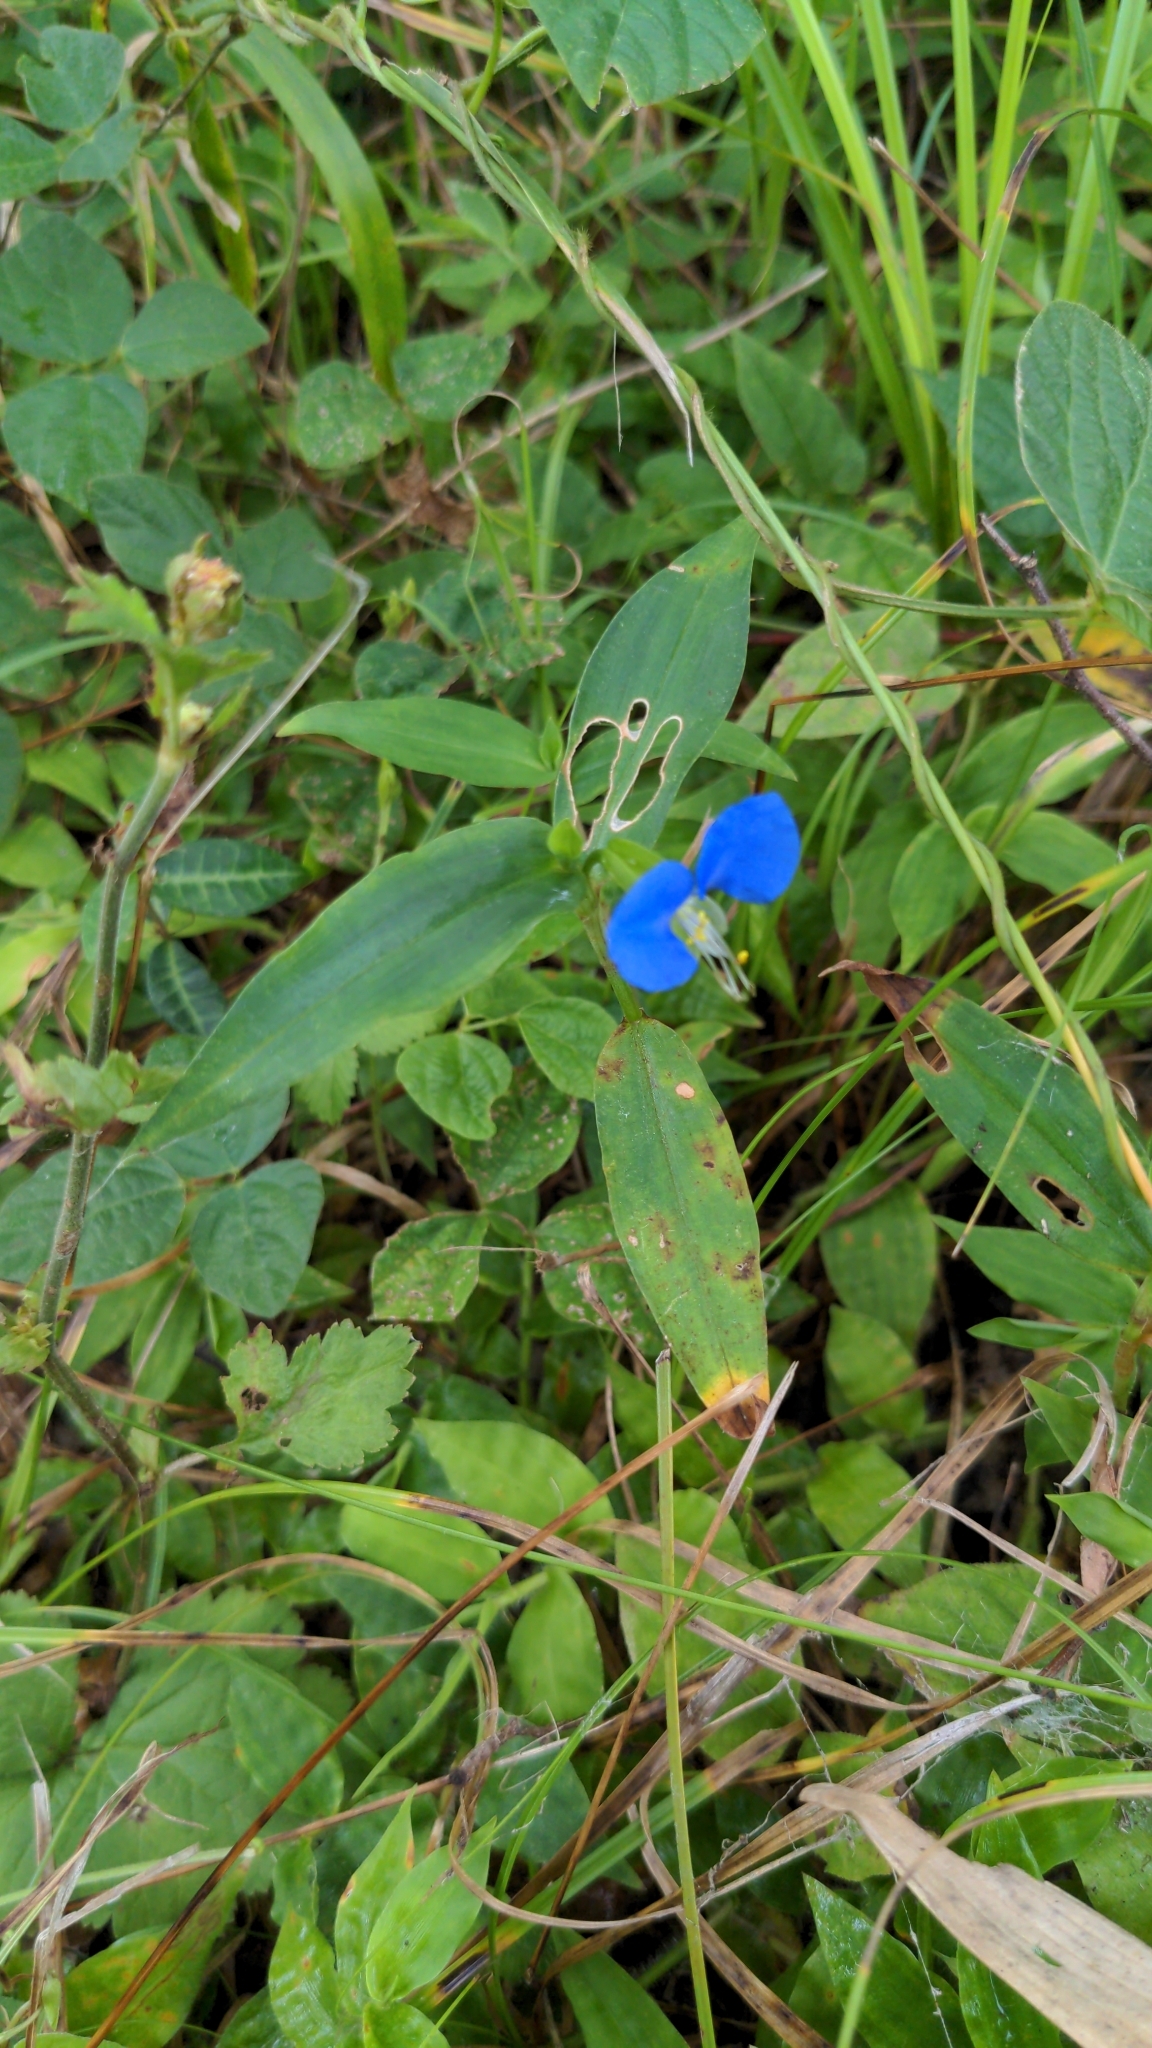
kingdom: Plantae
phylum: Tracheophyta
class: Liliopsida
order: Commelinales
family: Commelinaceae
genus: Commelina
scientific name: Commelina communis
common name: Asiatic dayflower
